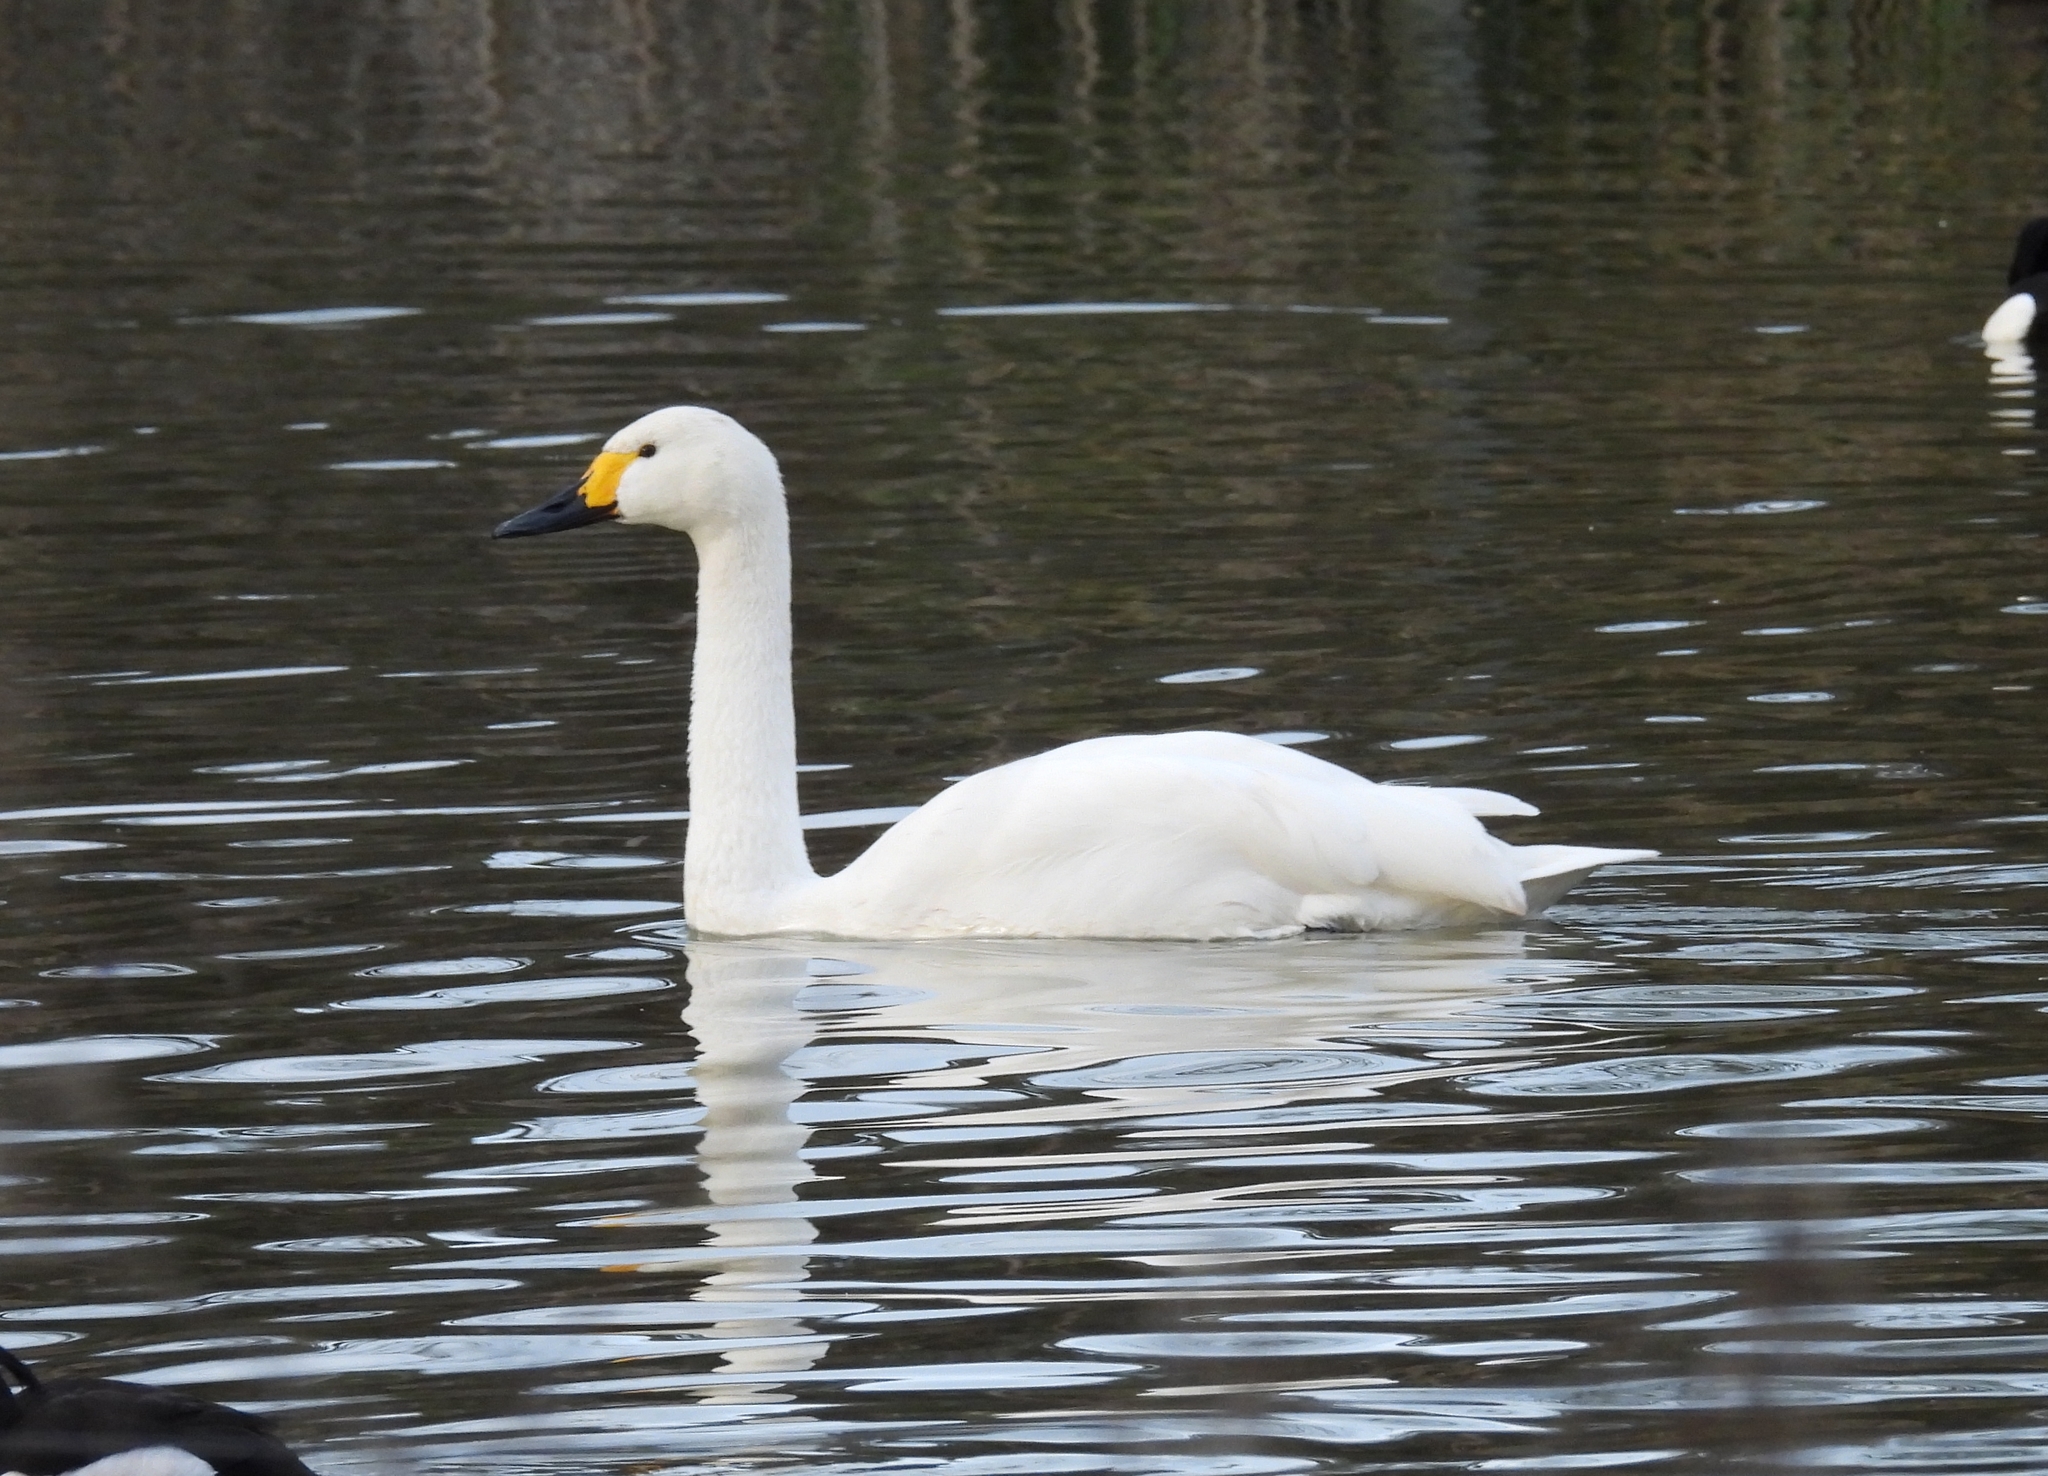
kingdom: Animalia
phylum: Chordata
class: Aves
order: Anseriformes
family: Anatidae
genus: Cygnus
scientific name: Cygnus columbianus
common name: Tundra swan
